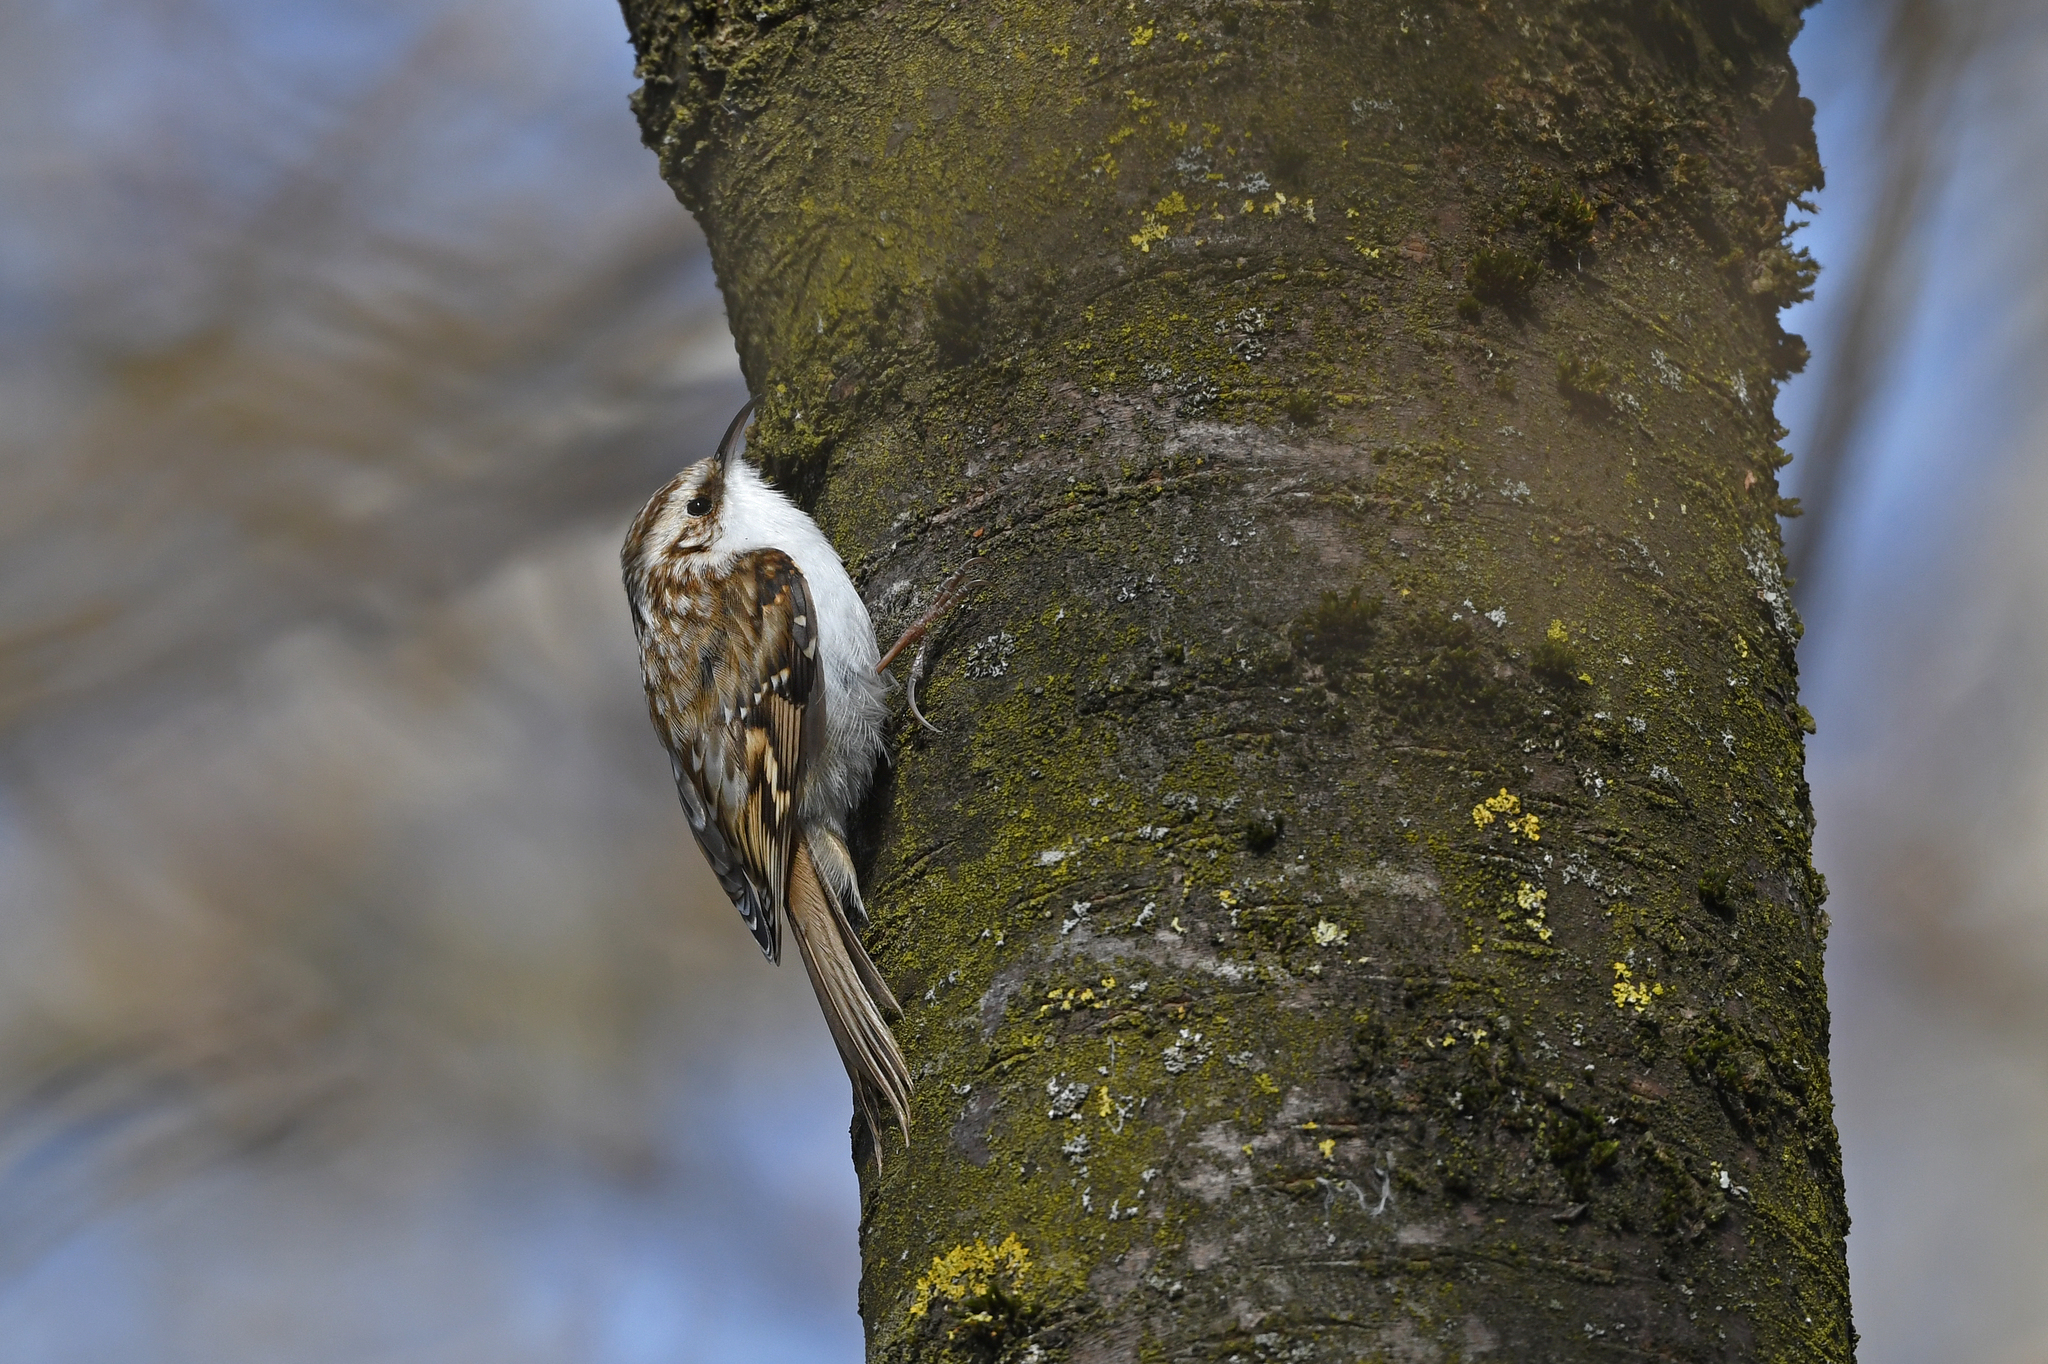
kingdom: Animalia
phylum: Chordata
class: Aves
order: Passeriformes
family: Certhiidae
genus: Certhia
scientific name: Certhia familiaris
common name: Eurasian treecreeper
